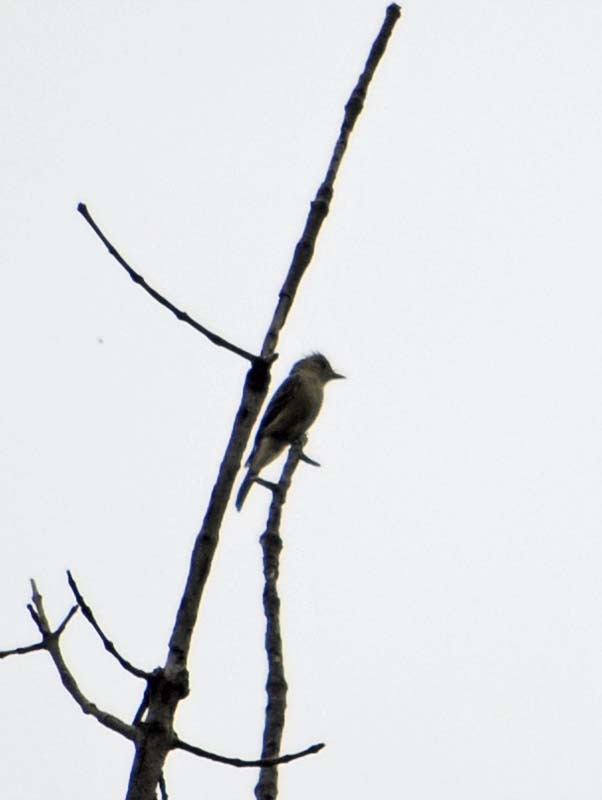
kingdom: Animalia
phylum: Chordata
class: Aves
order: Passeriformes
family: Tyrannidae
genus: Contopus
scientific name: Contopus cooperi
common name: Olive-sided flycatcher
